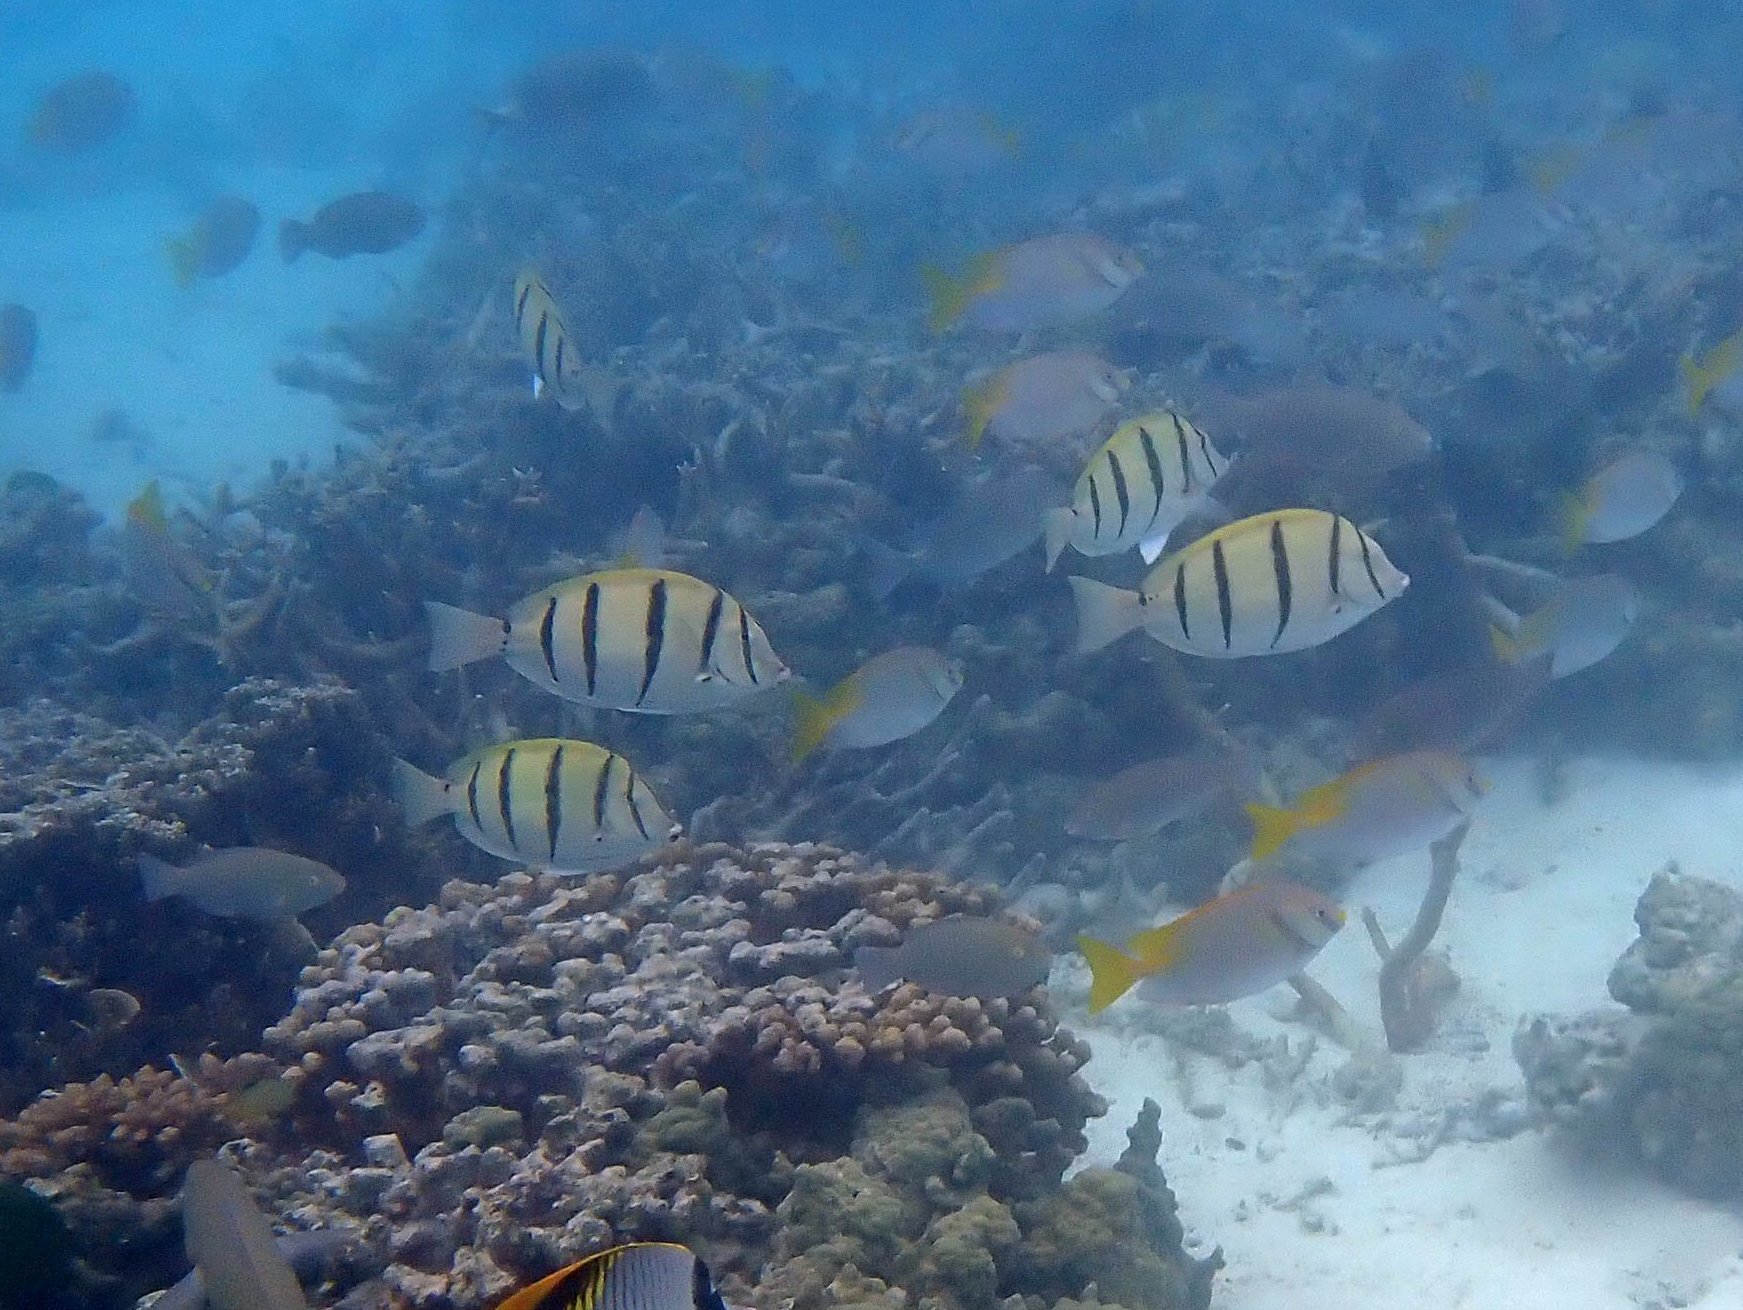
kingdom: Animalia
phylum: Chordata
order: Perciformes
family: Acanthuridae
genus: Acanthurus
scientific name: Acanthurus triostegus
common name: Convict surgeonfish
